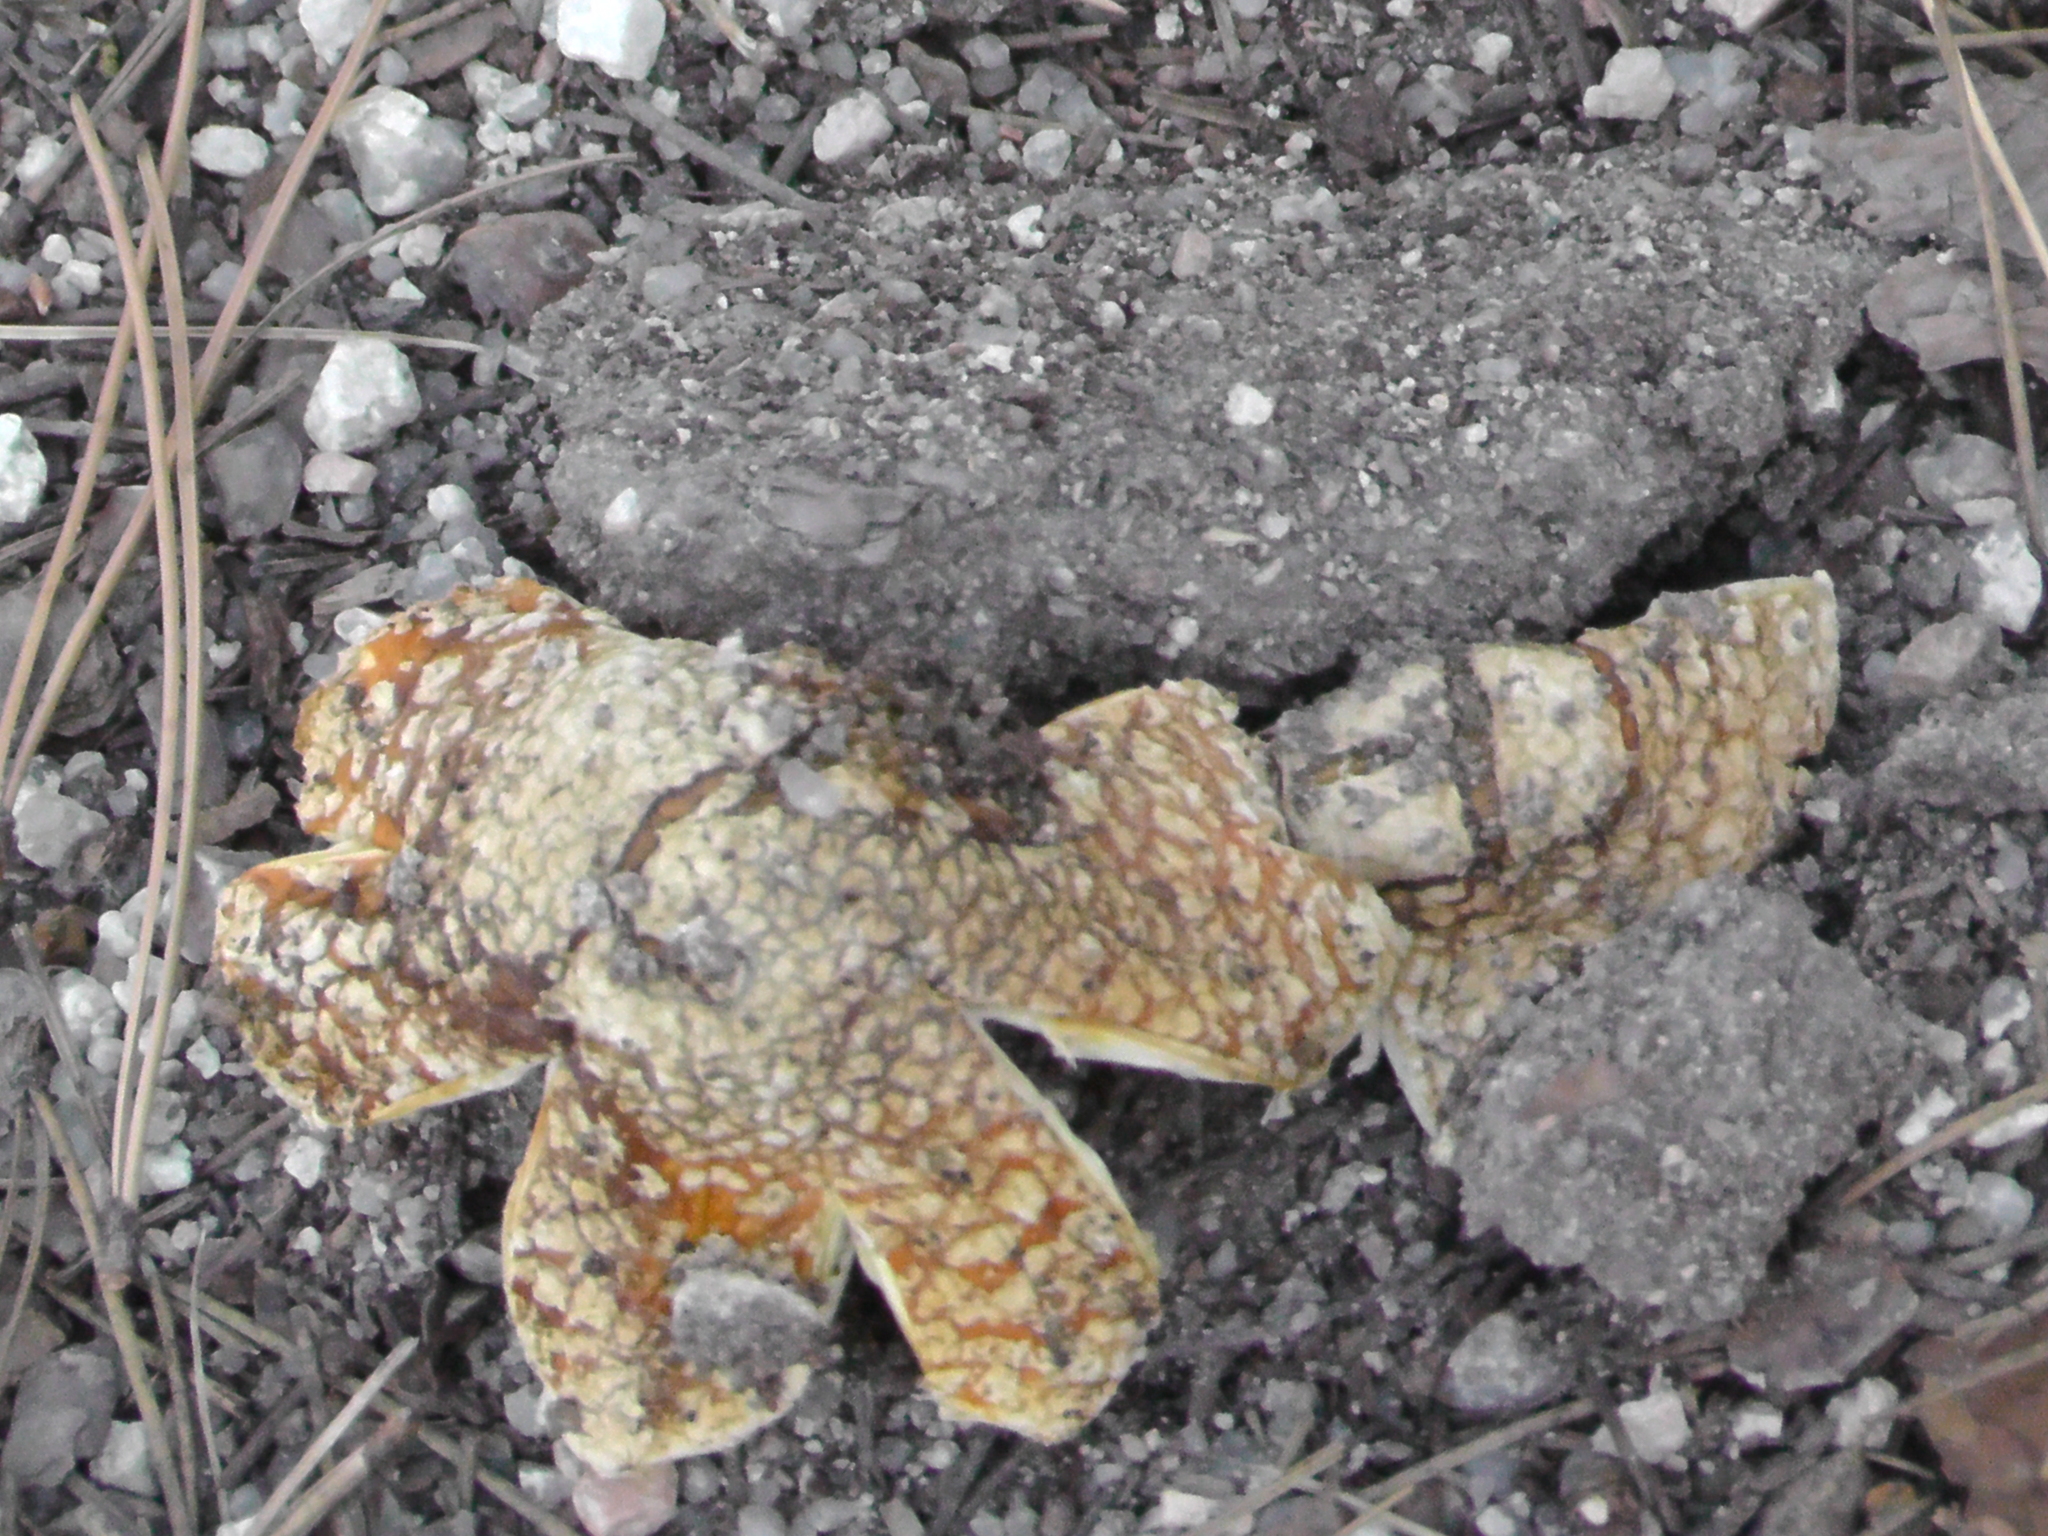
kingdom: Fungi
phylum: Basidiomycota
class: Agaricomycetes
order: Agaricales
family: Amanitaceae
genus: Amanita
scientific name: Amanita muscaria
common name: Fly agaric
